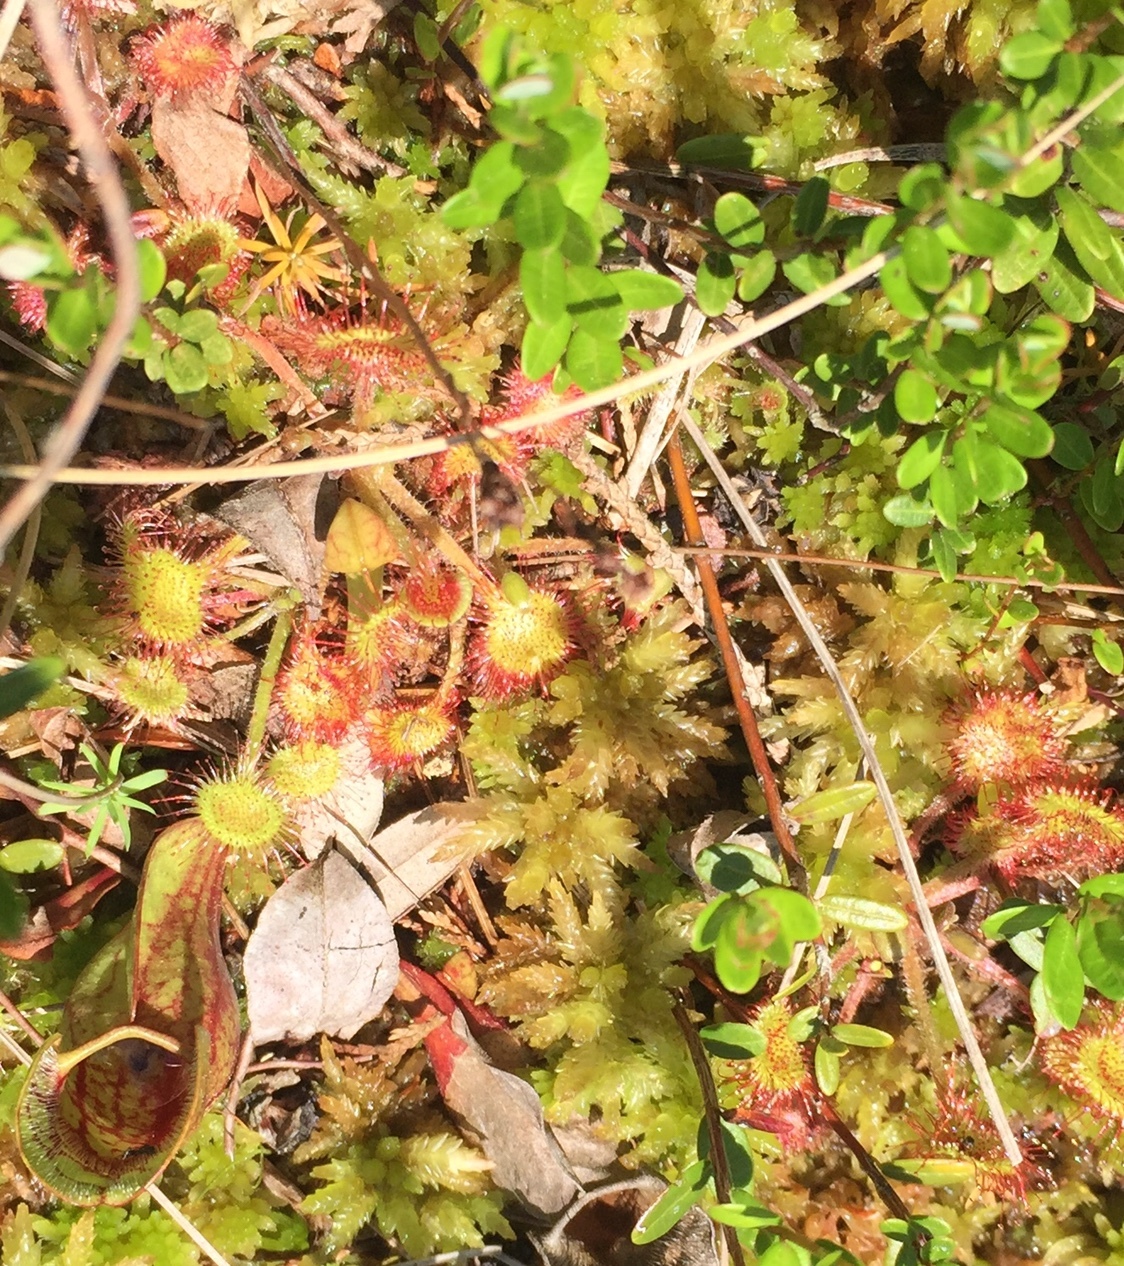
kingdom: Plantae
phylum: Tracheophyta
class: Magnoliopsida
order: Caryophyllales
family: Droseraceae
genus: Drosera
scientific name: Drosera rotundifolia
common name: Round-leaved sundew
